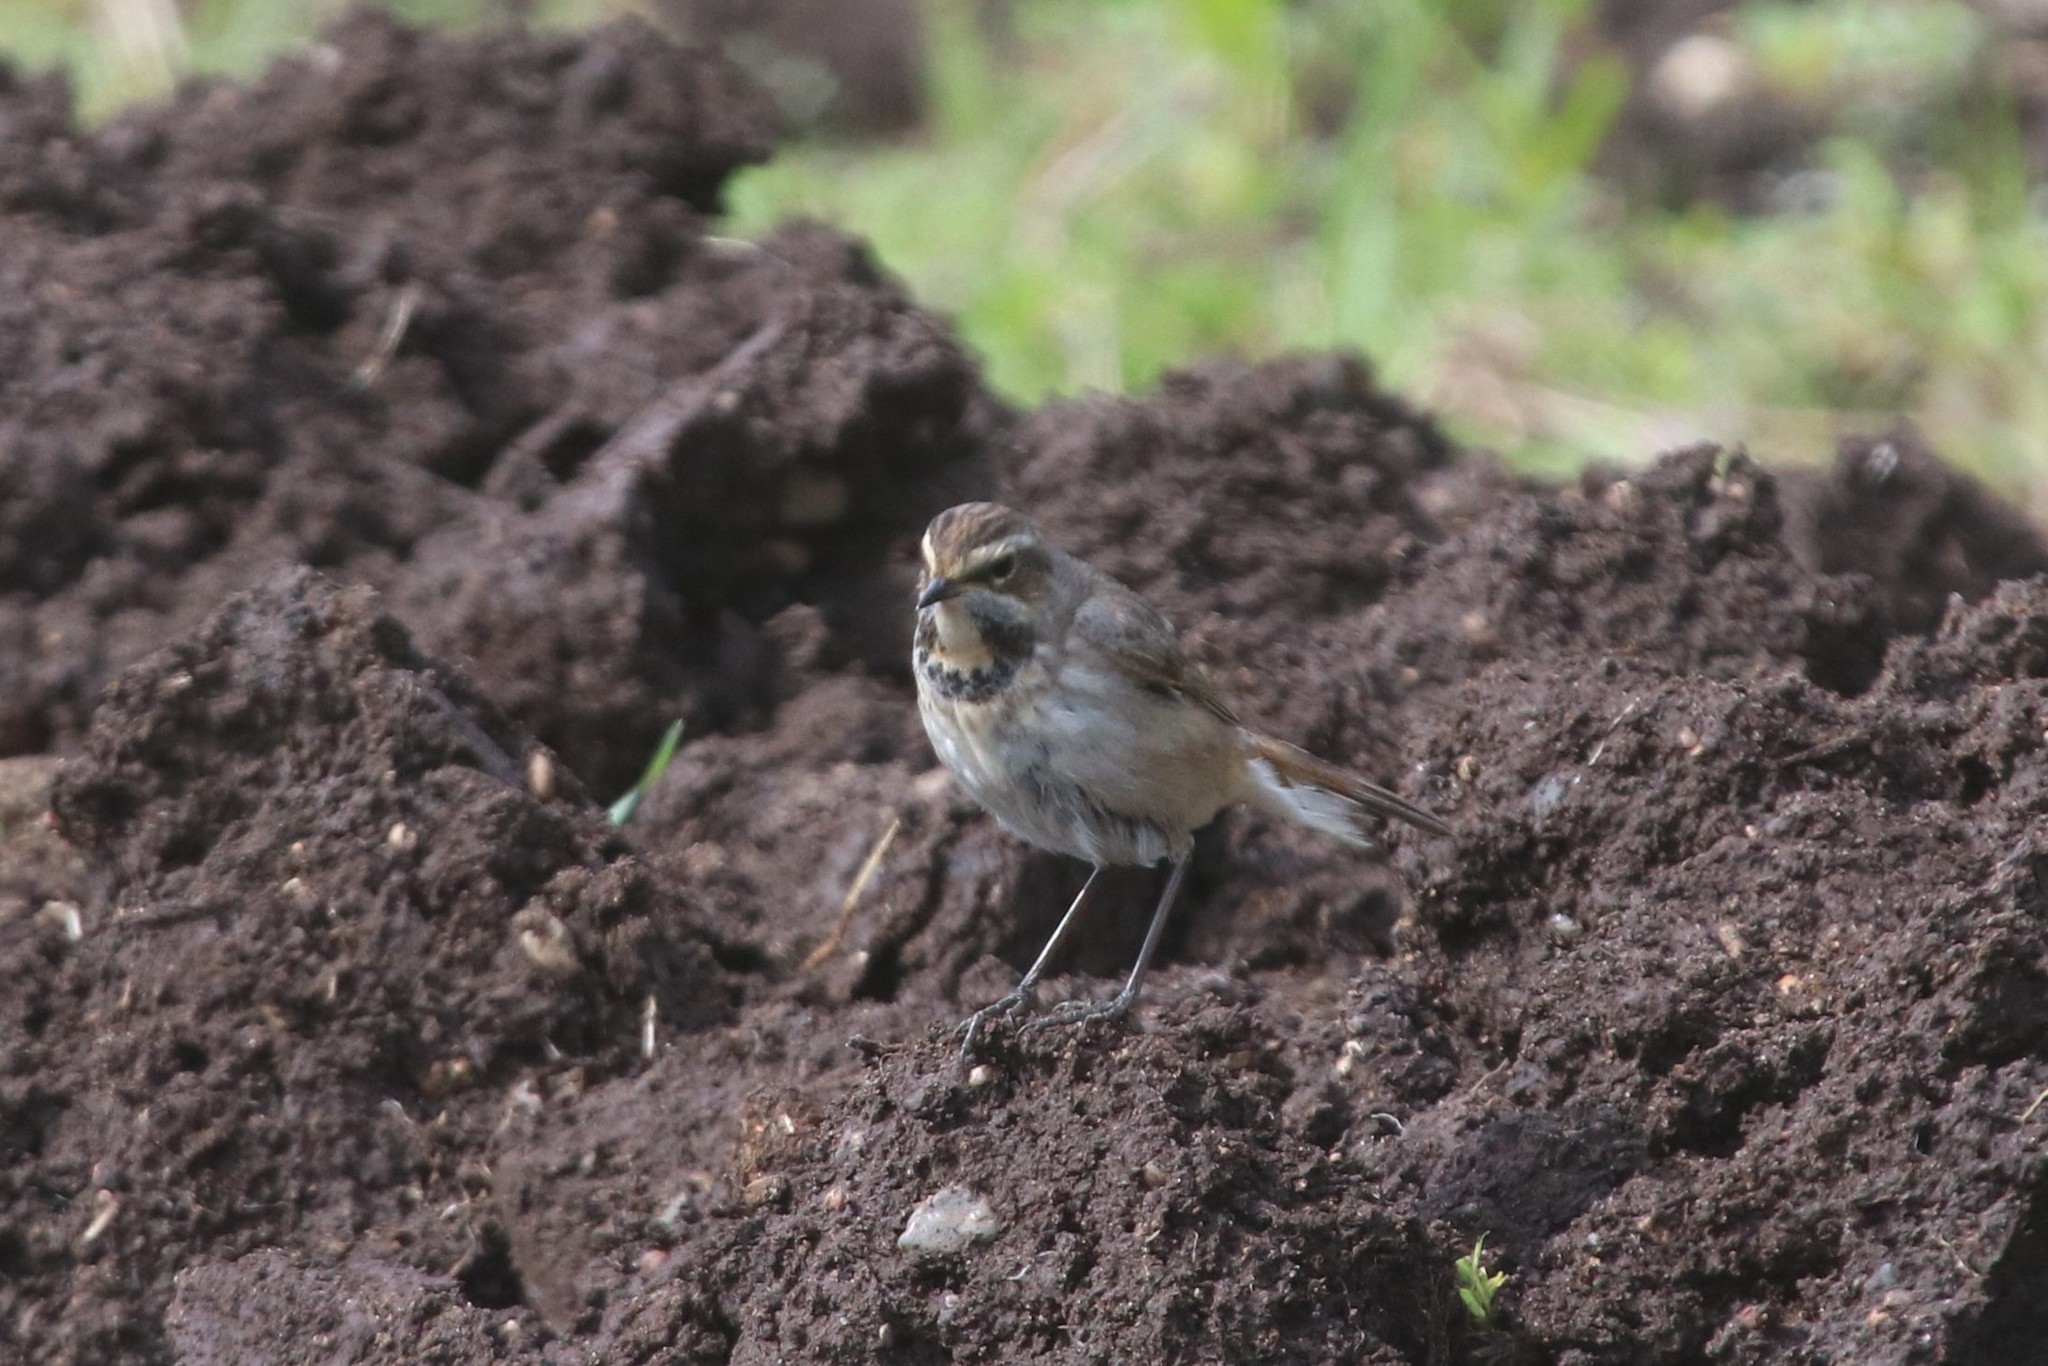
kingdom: Animalia
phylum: Chordata
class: Aves
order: Passeriformes
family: Muscicapidae
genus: Luscinia
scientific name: Luscinia svecica
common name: Bluethroat
